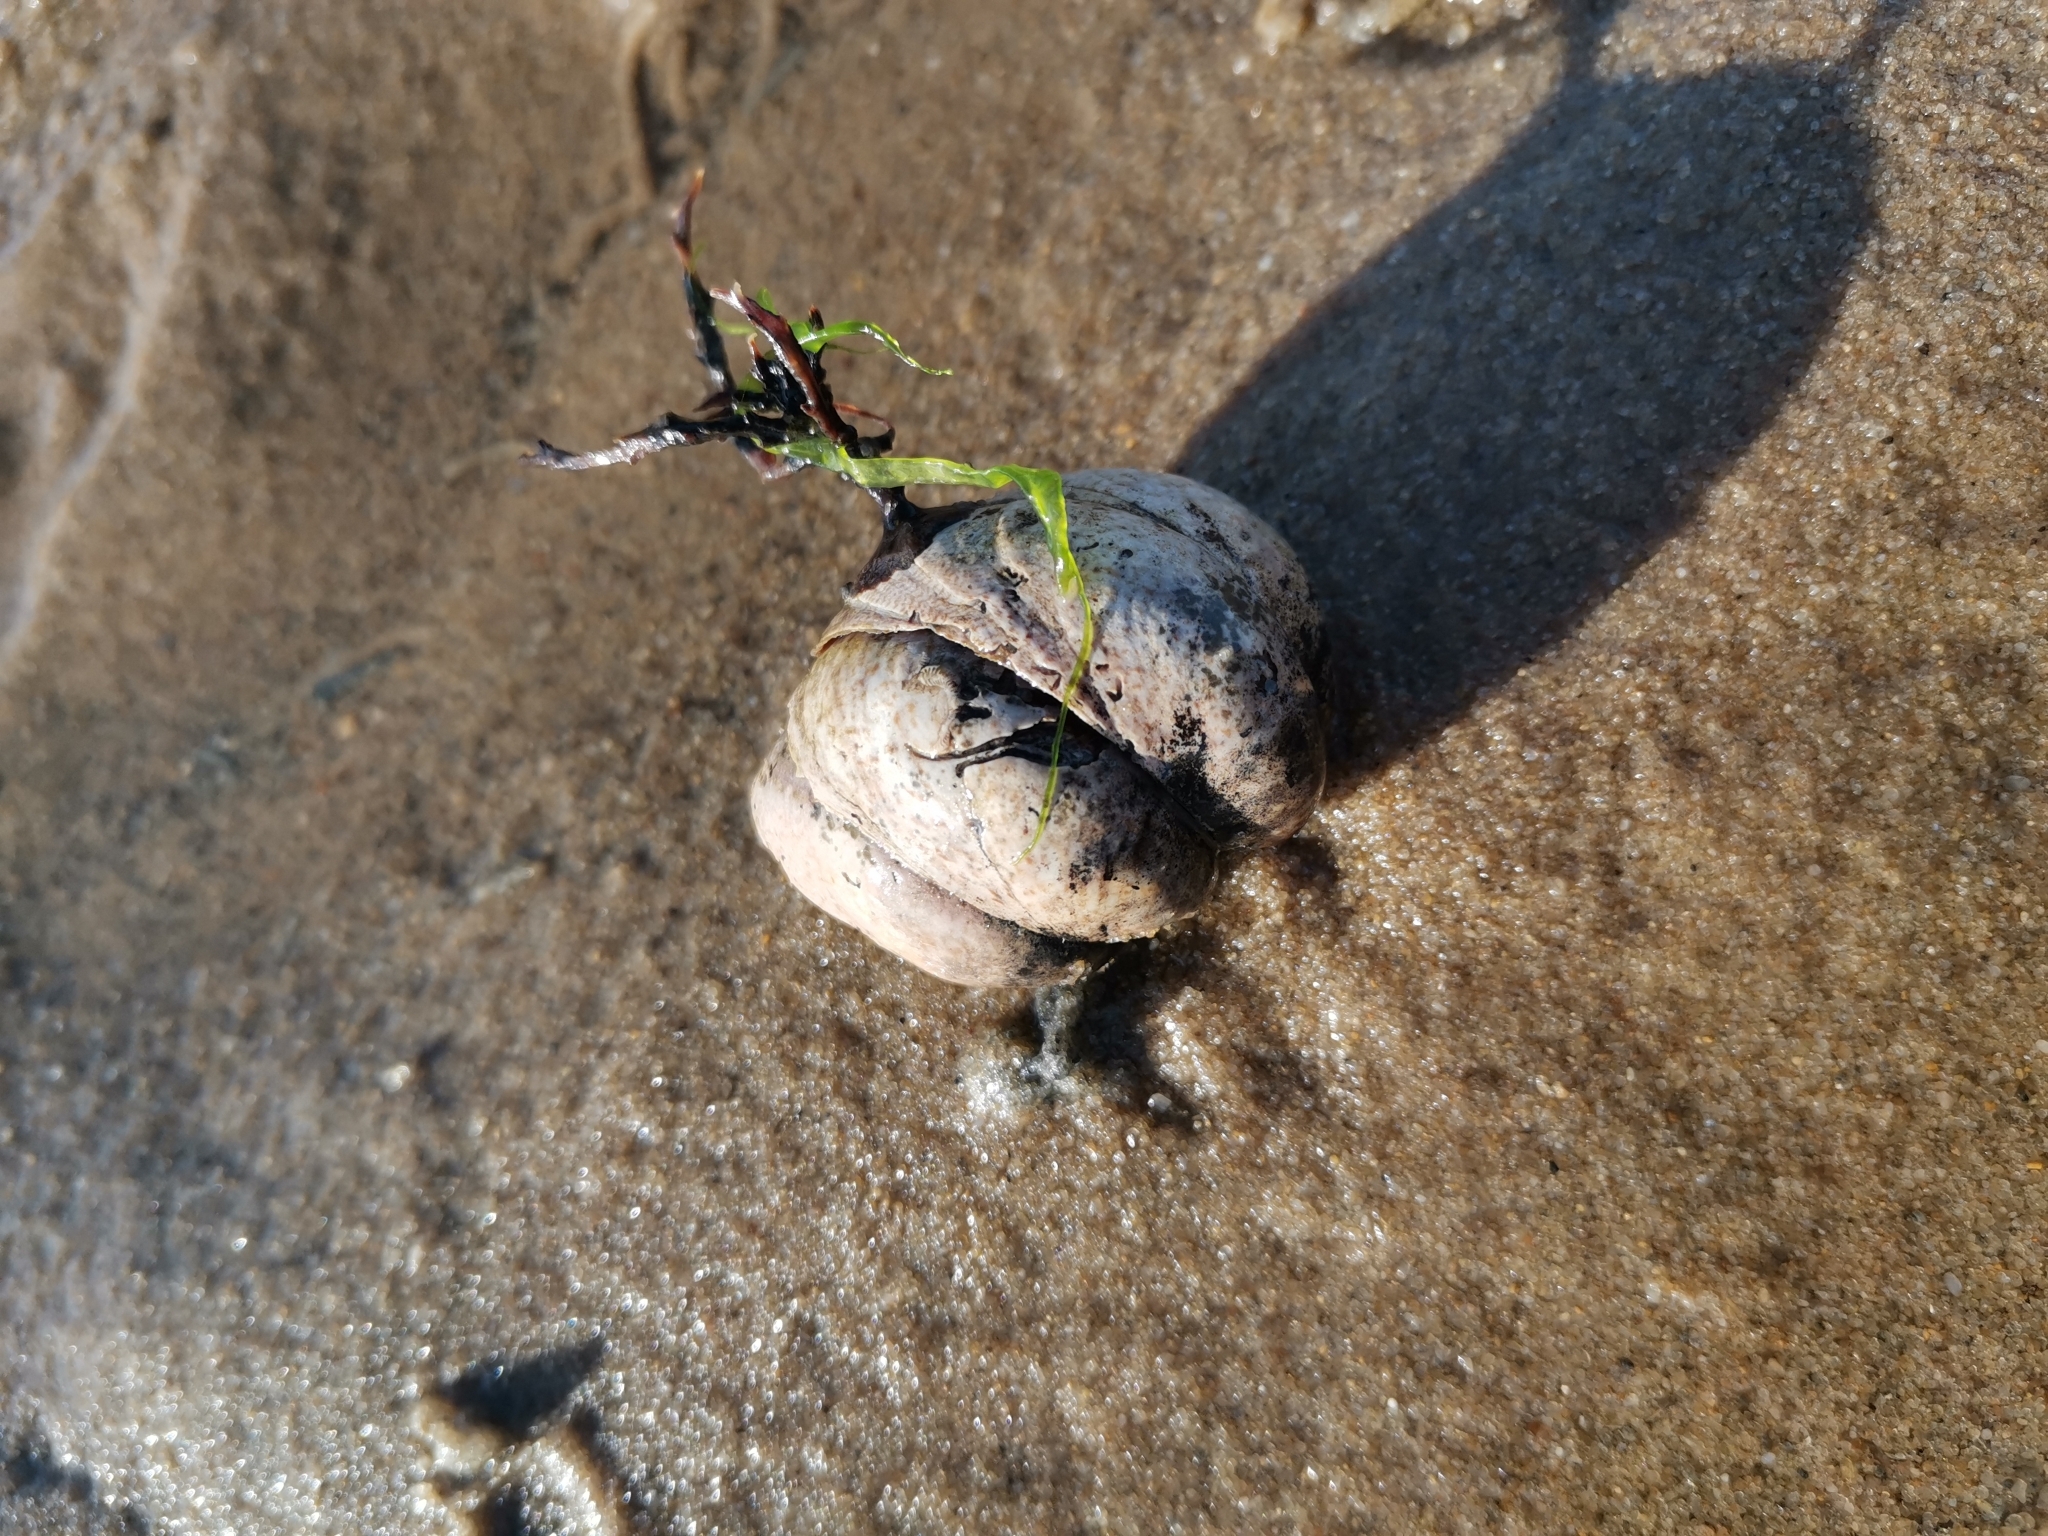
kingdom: Animalia
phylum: Mollusca
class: Gastropoda
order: Littorinimorpha
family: Calyptraeidae
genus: Crepidula
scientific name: Crepidula fornicata
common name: Slipper limpet
